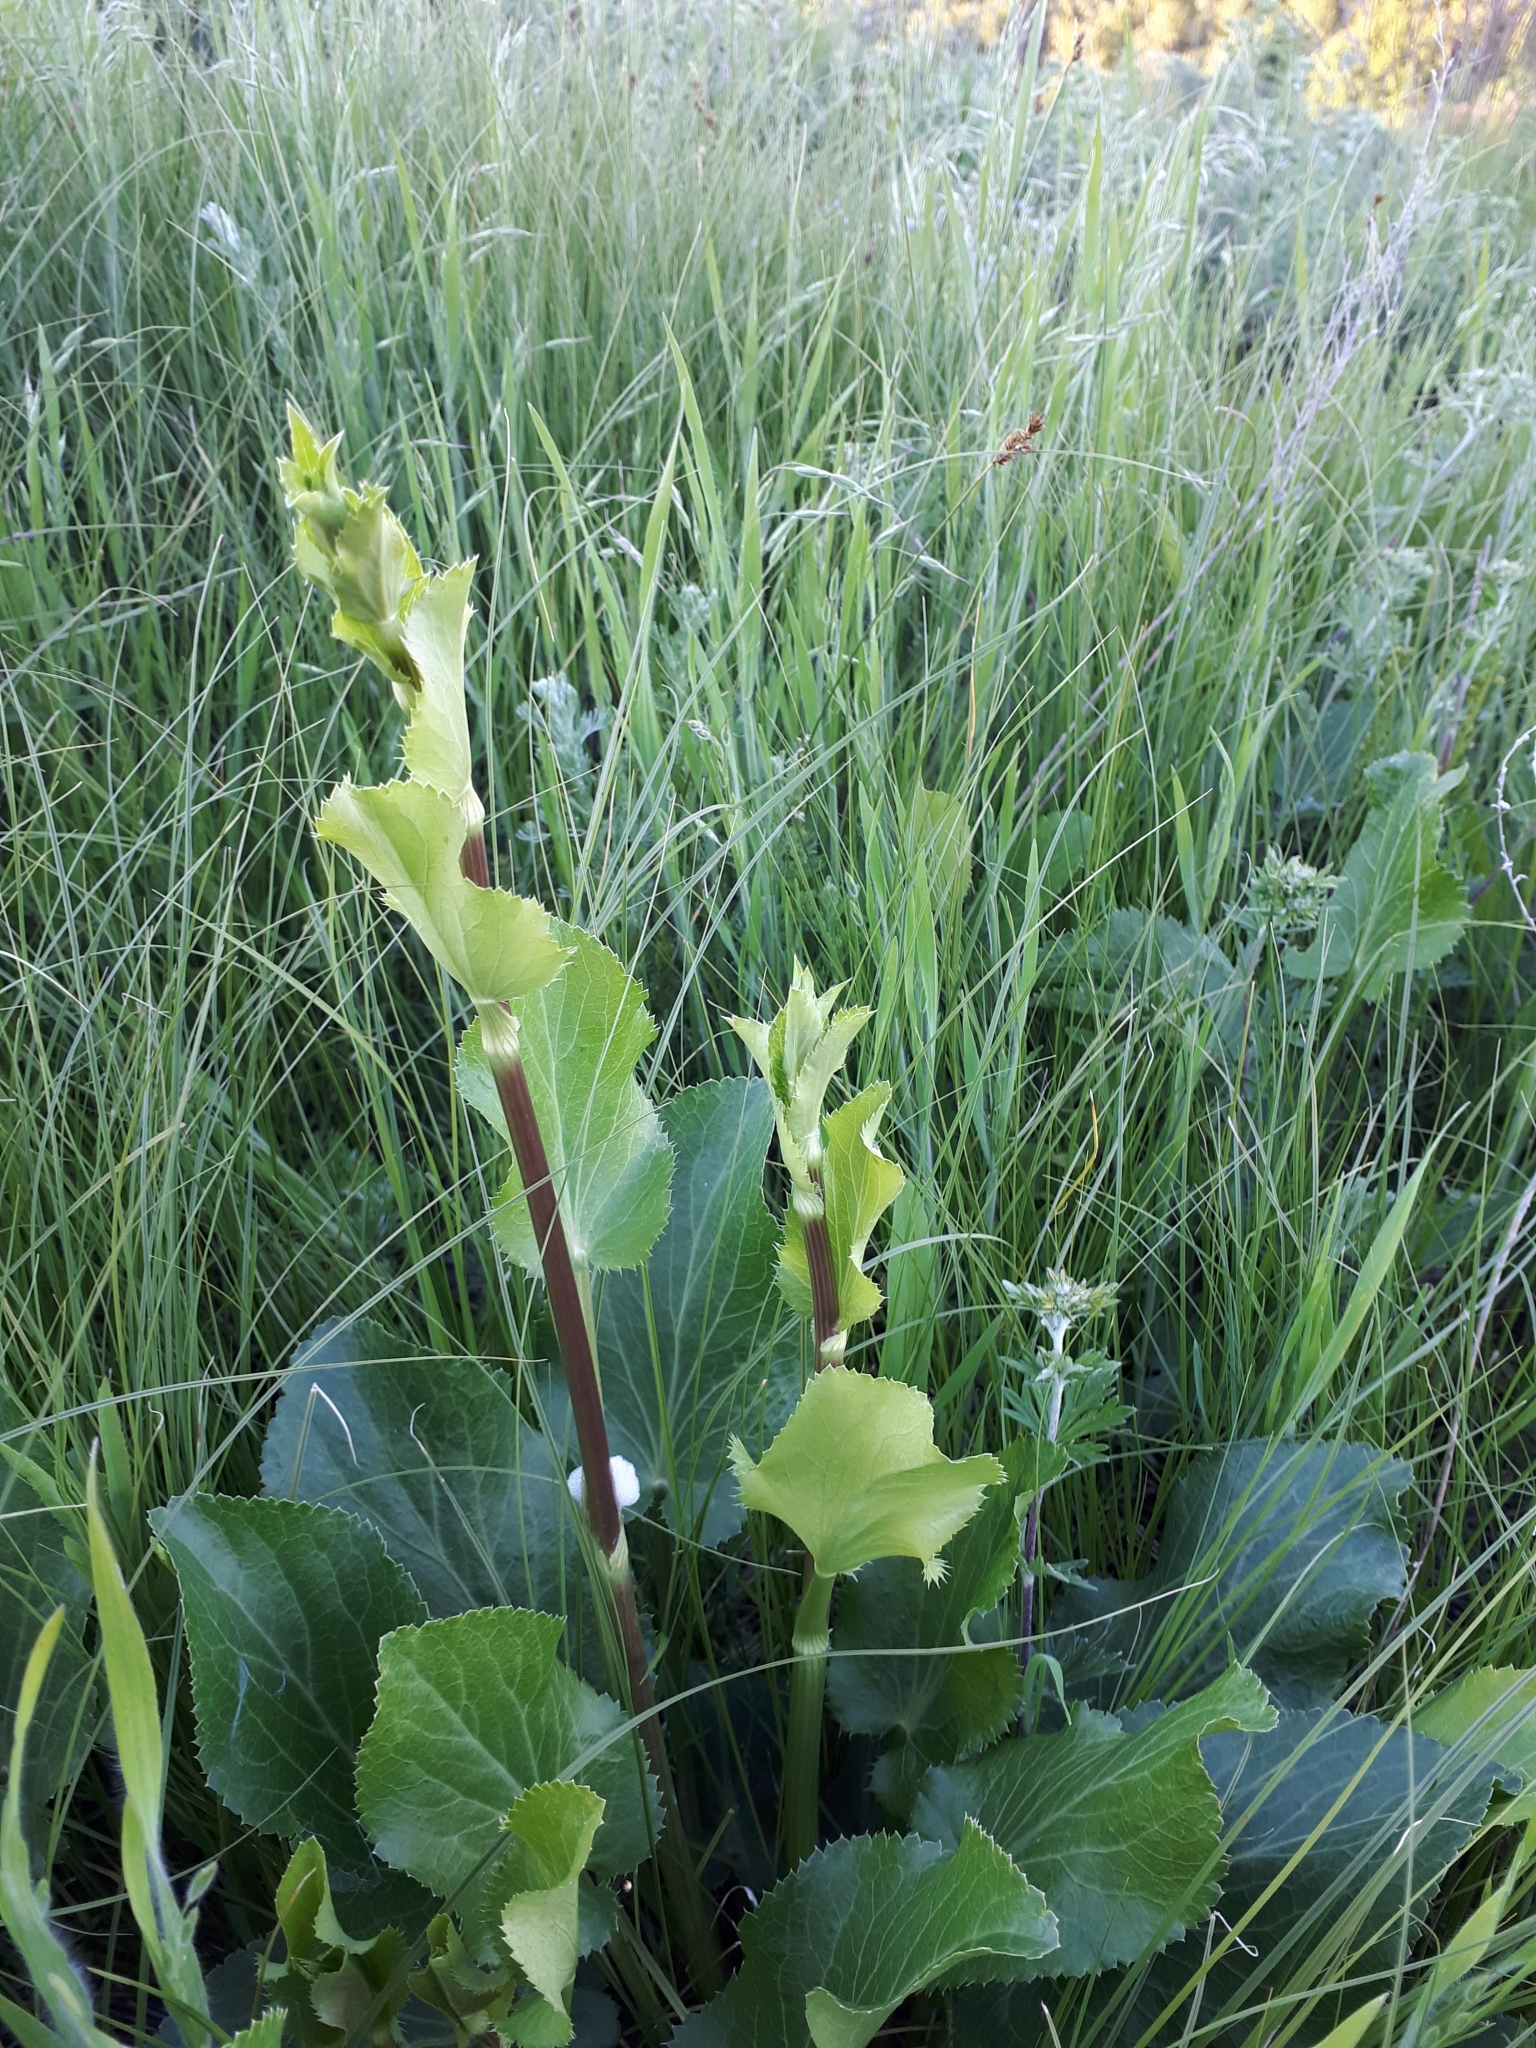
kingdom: Plantae
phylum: Tracheophyta
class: Magnoliopsida
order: Apiales
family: Apiaceae
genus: Eryngium
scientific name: Eryngium planum
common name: Blue eryngo
